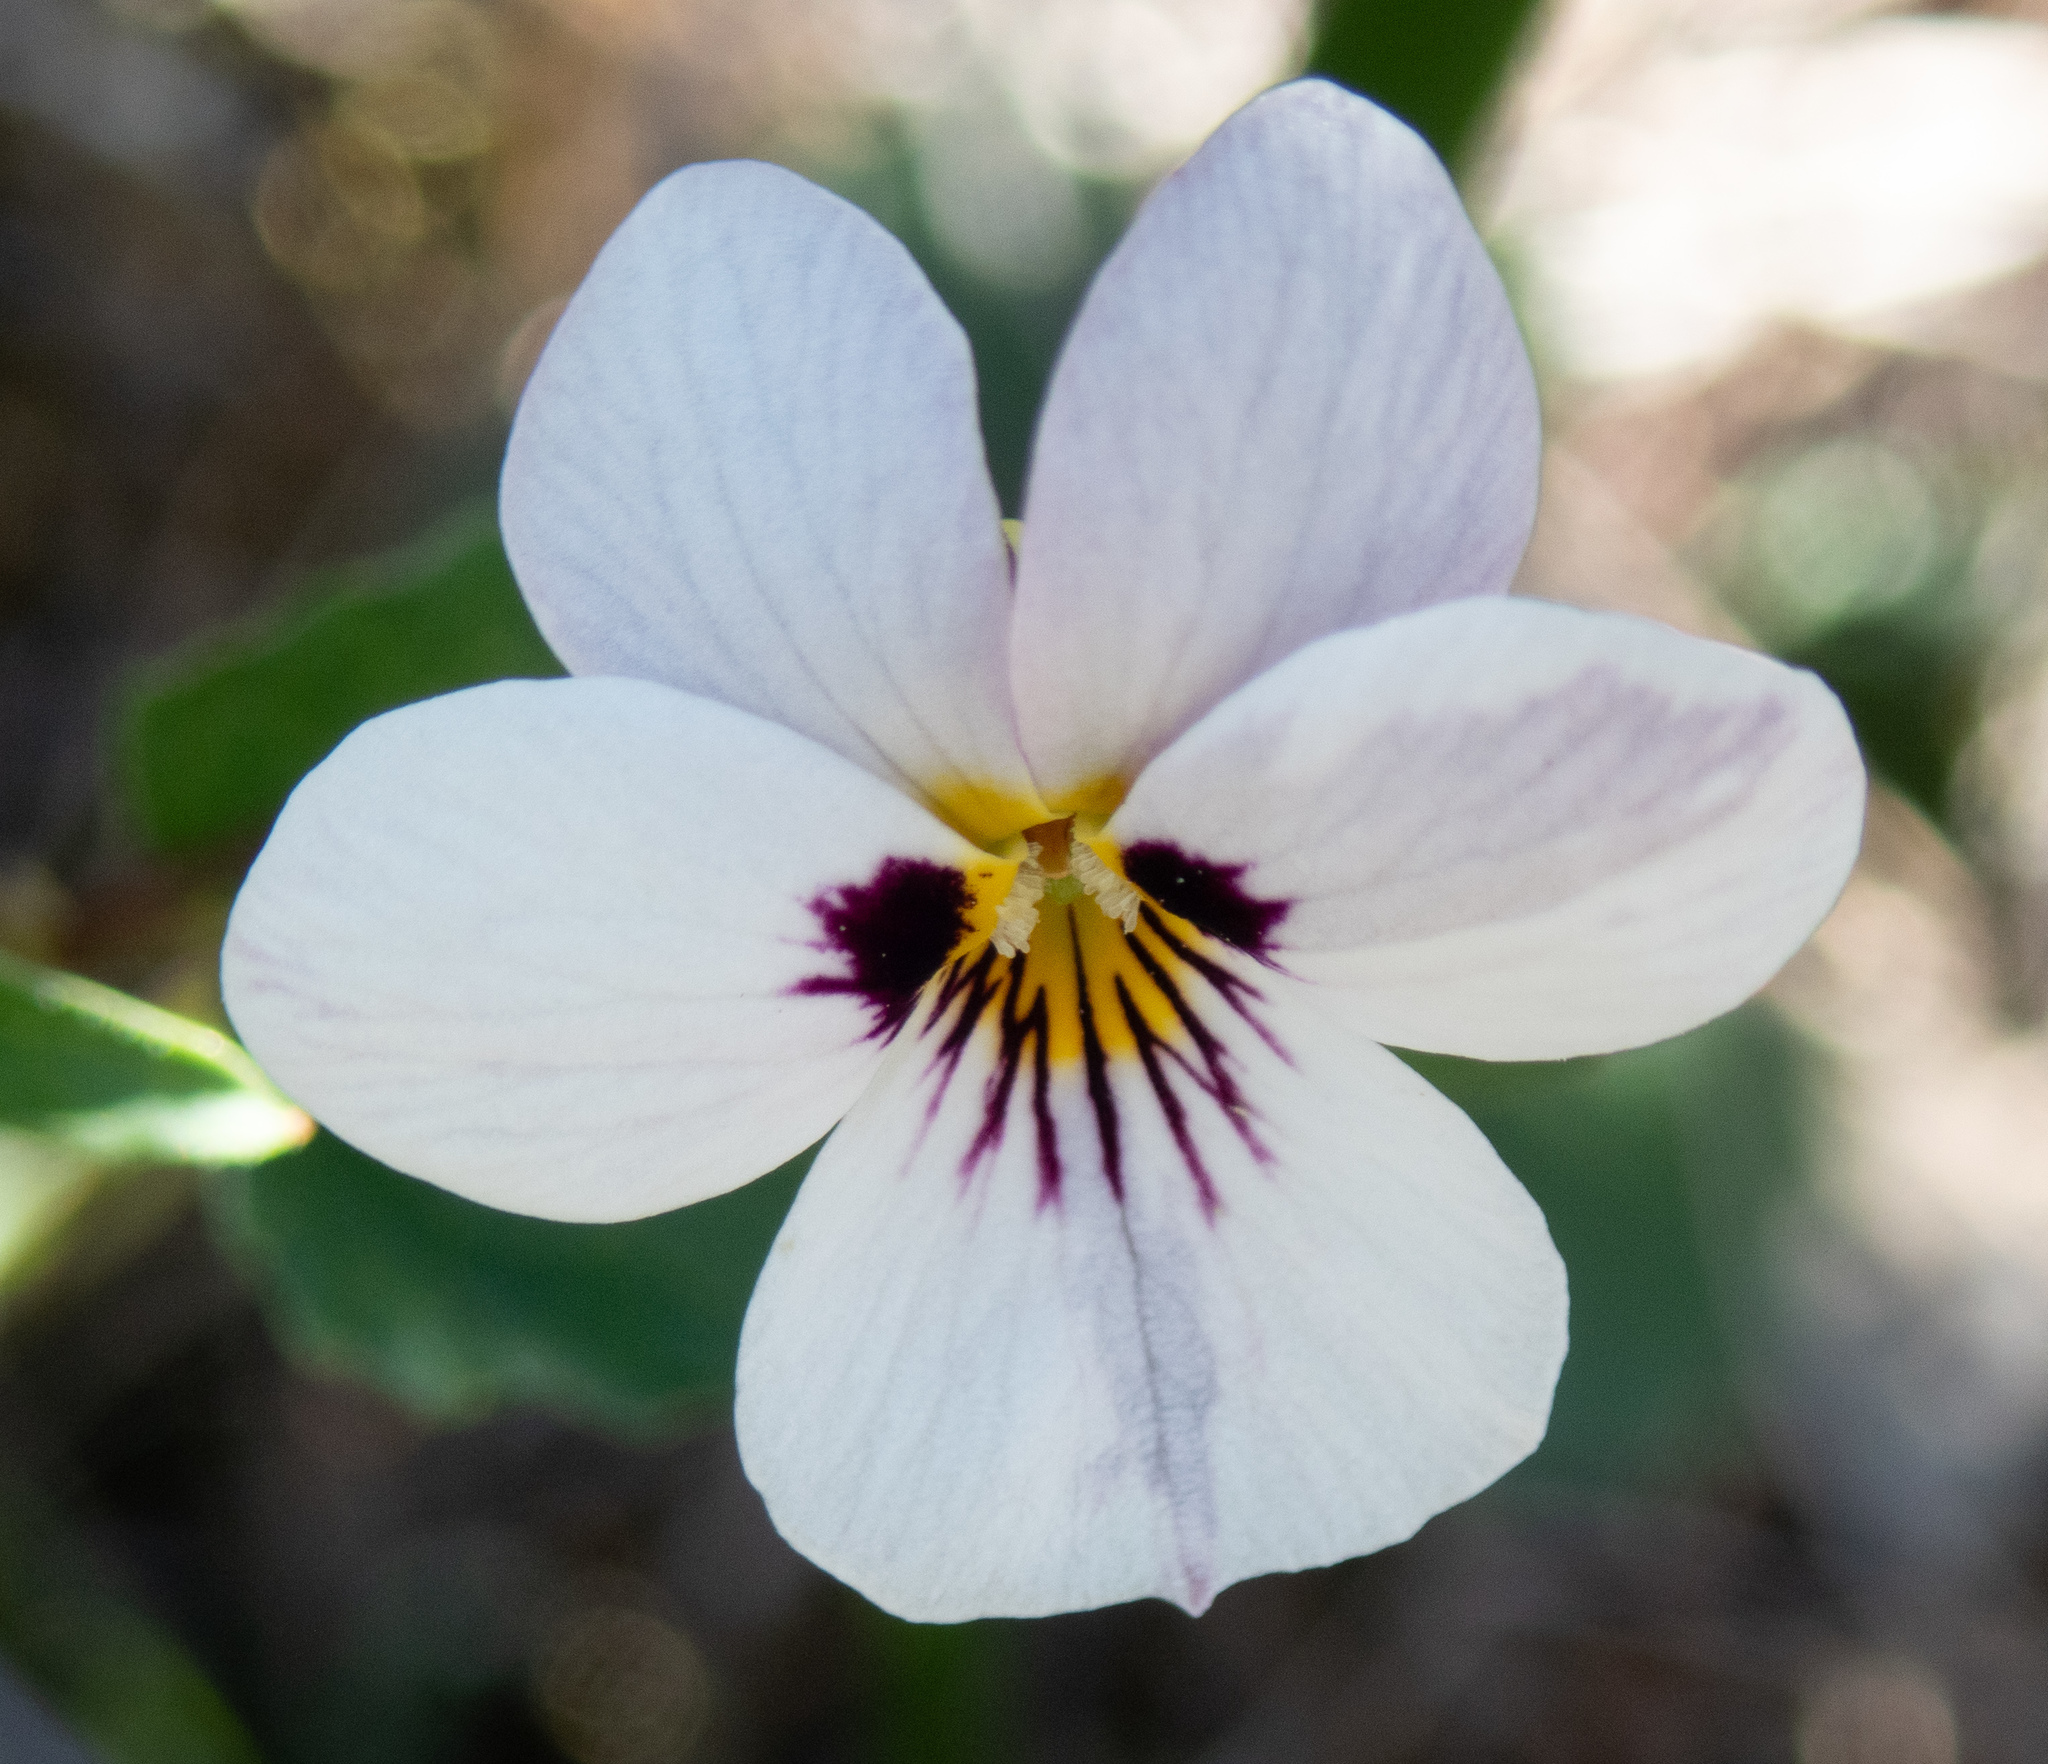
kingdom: Plantae
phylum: Tracheophyta
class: Magnoliopsida
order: Malpighiales
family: Violaceae
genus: Viola
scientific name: Viola ocellata
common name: Western heart's ease
